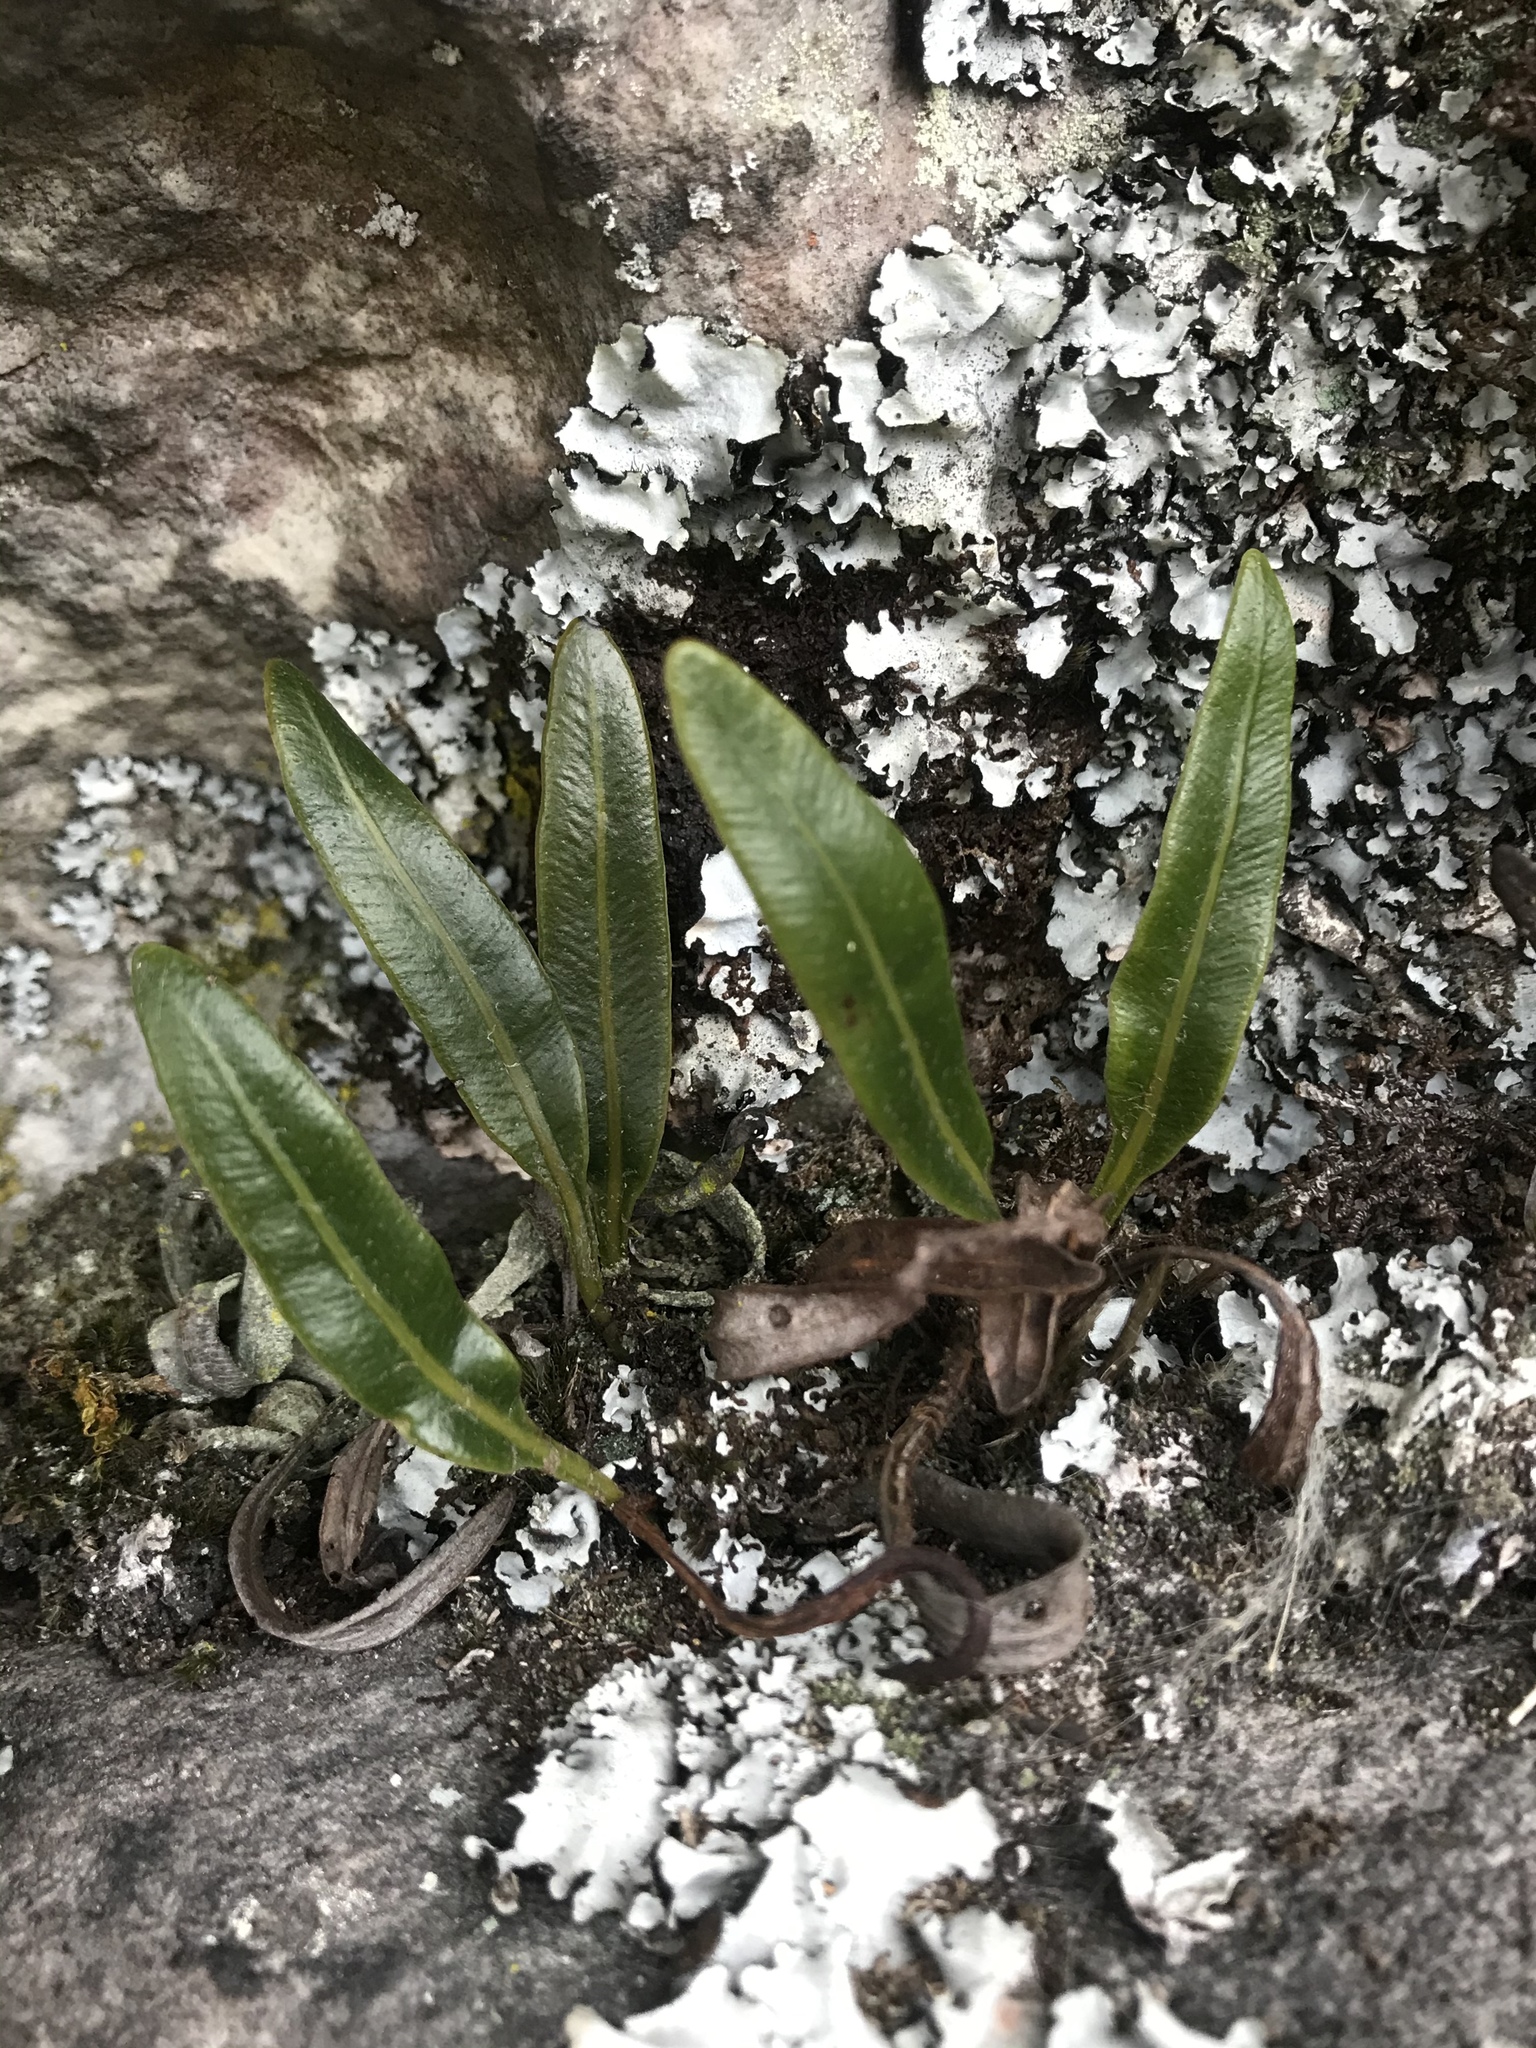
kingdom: Plantae
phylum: Tracheophyta
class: Polypodiopsida
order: Polypodiales
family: Dryopteridaceae
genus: Elaphoglossum
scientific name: Elaphoglossum gayanum
